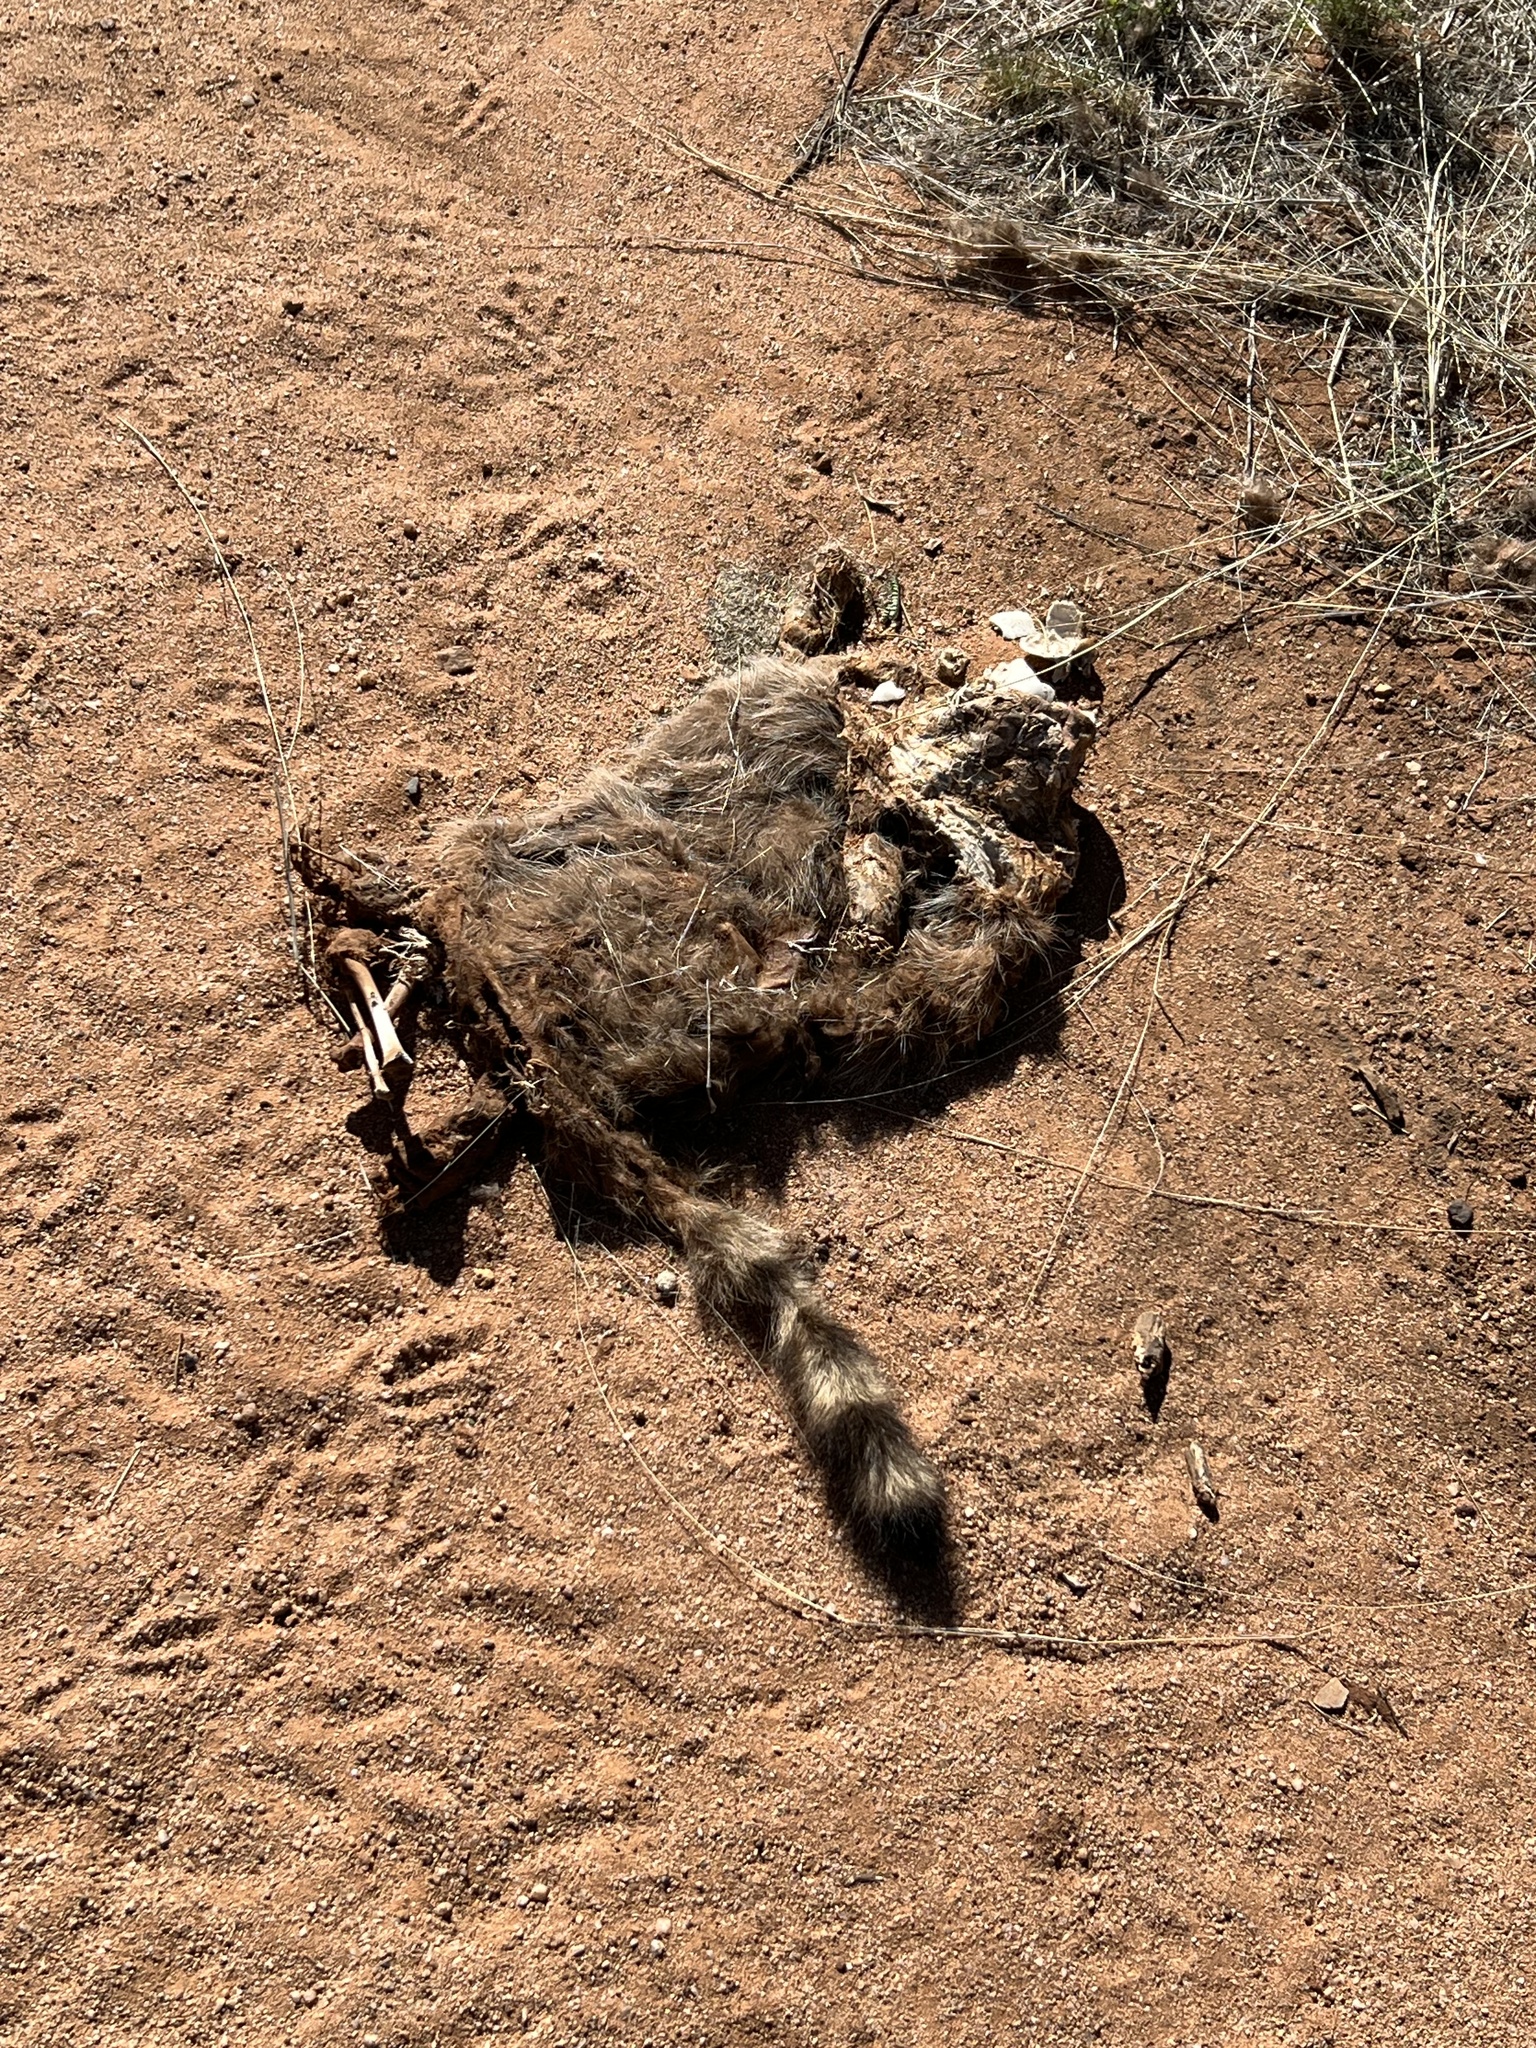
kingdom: Animalia
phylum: Chordata
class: Mammalia
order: Carnivora
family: Procyonidae
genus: Procyon
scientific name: Procyon lotor
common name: Raccoon
